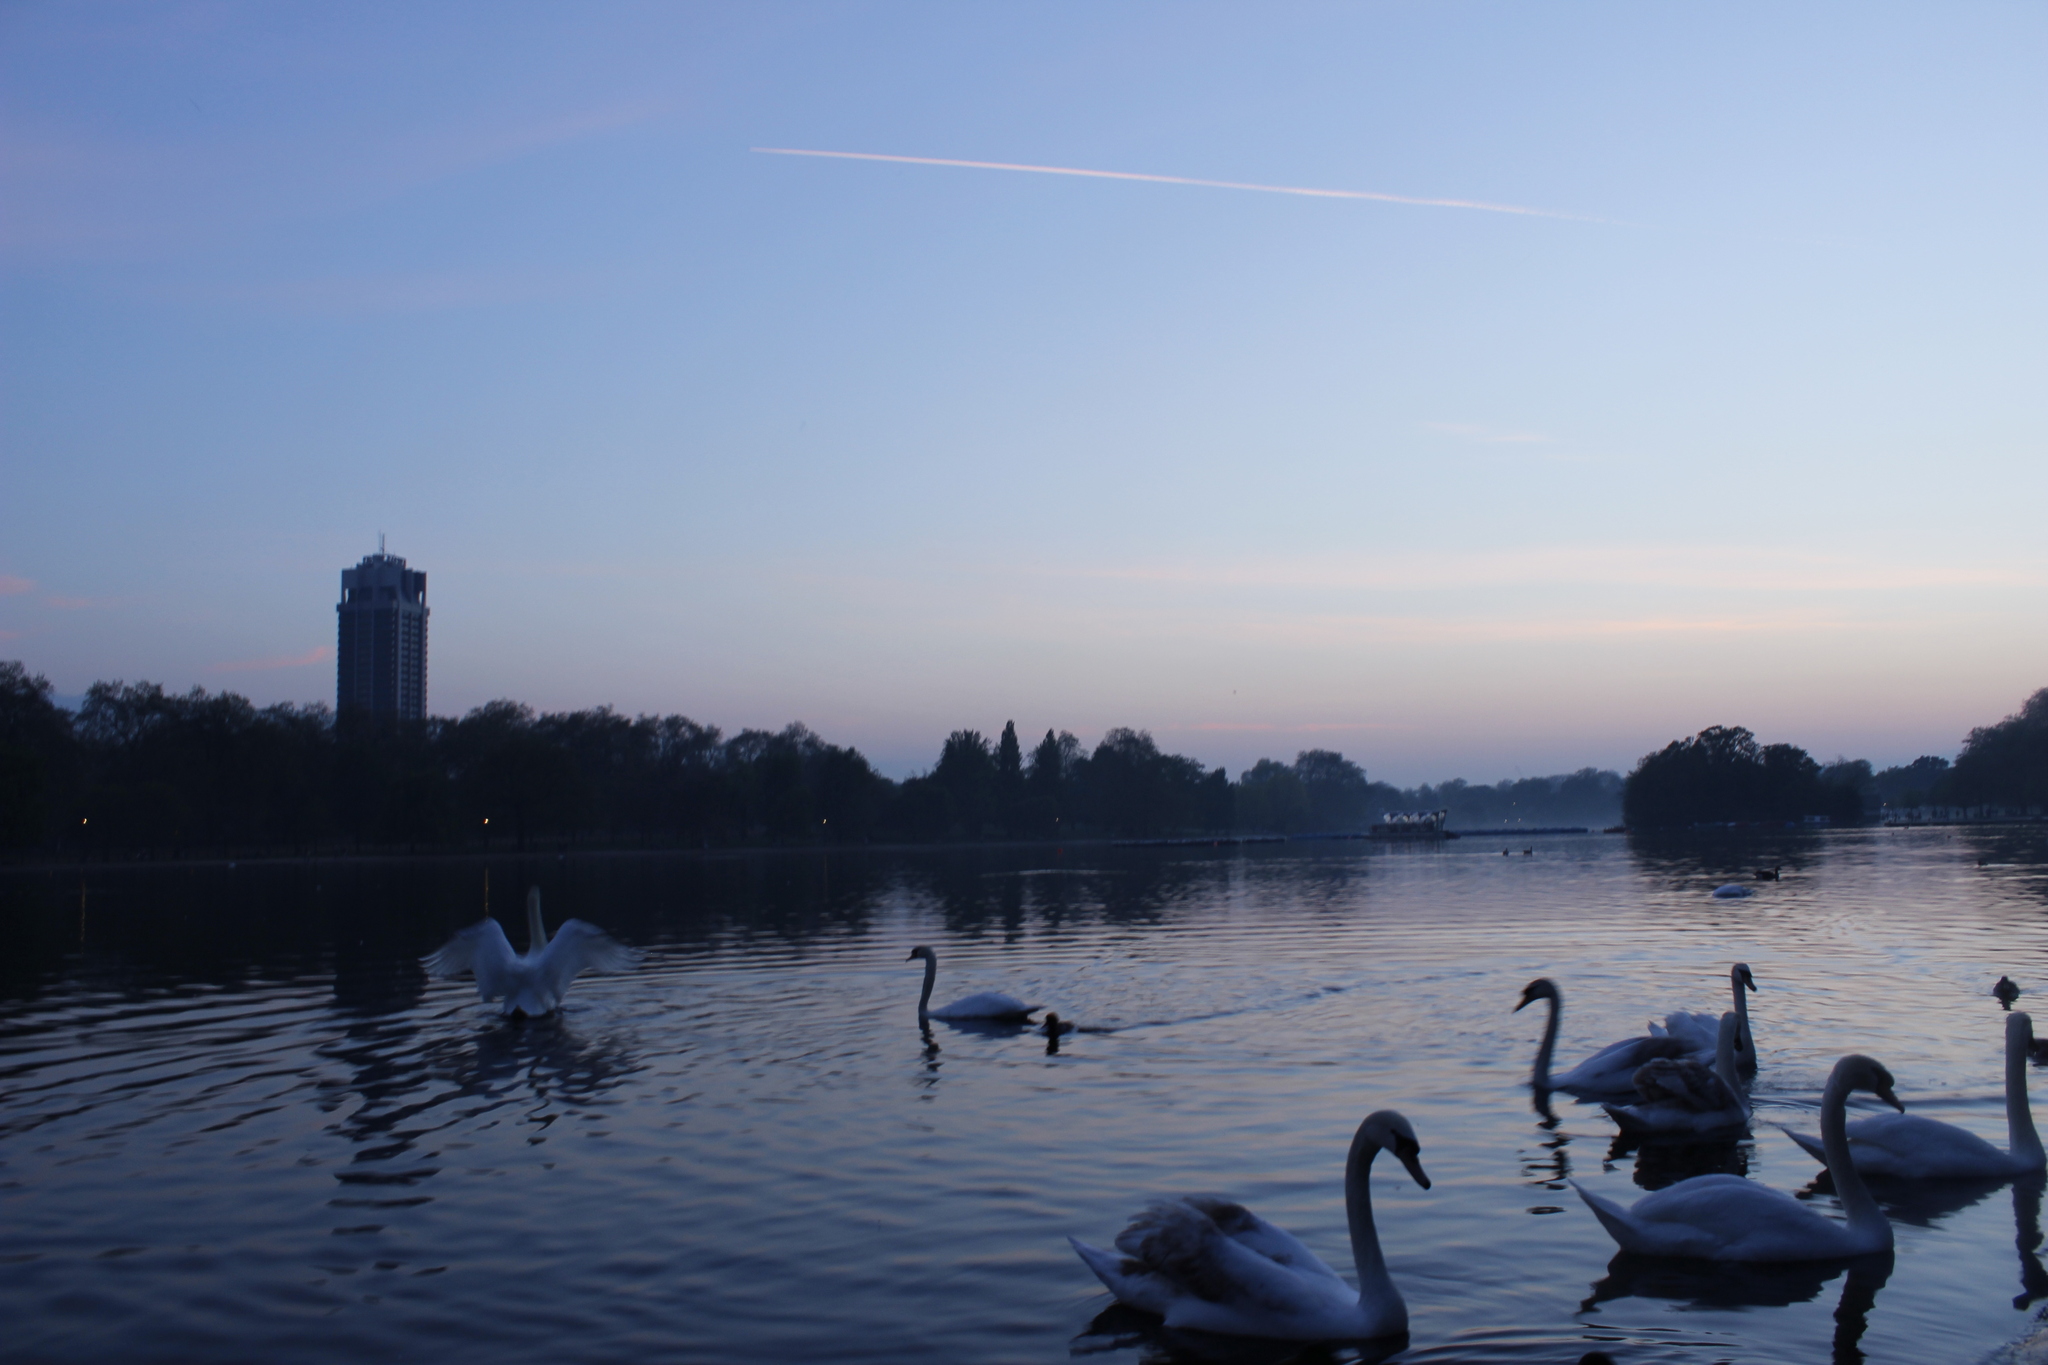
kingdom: Animalia
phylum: Chordata
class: Aves
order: Anseriformes
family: Anatidae
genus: Cygnus
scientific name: Cygnus olor
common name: Mute swan
